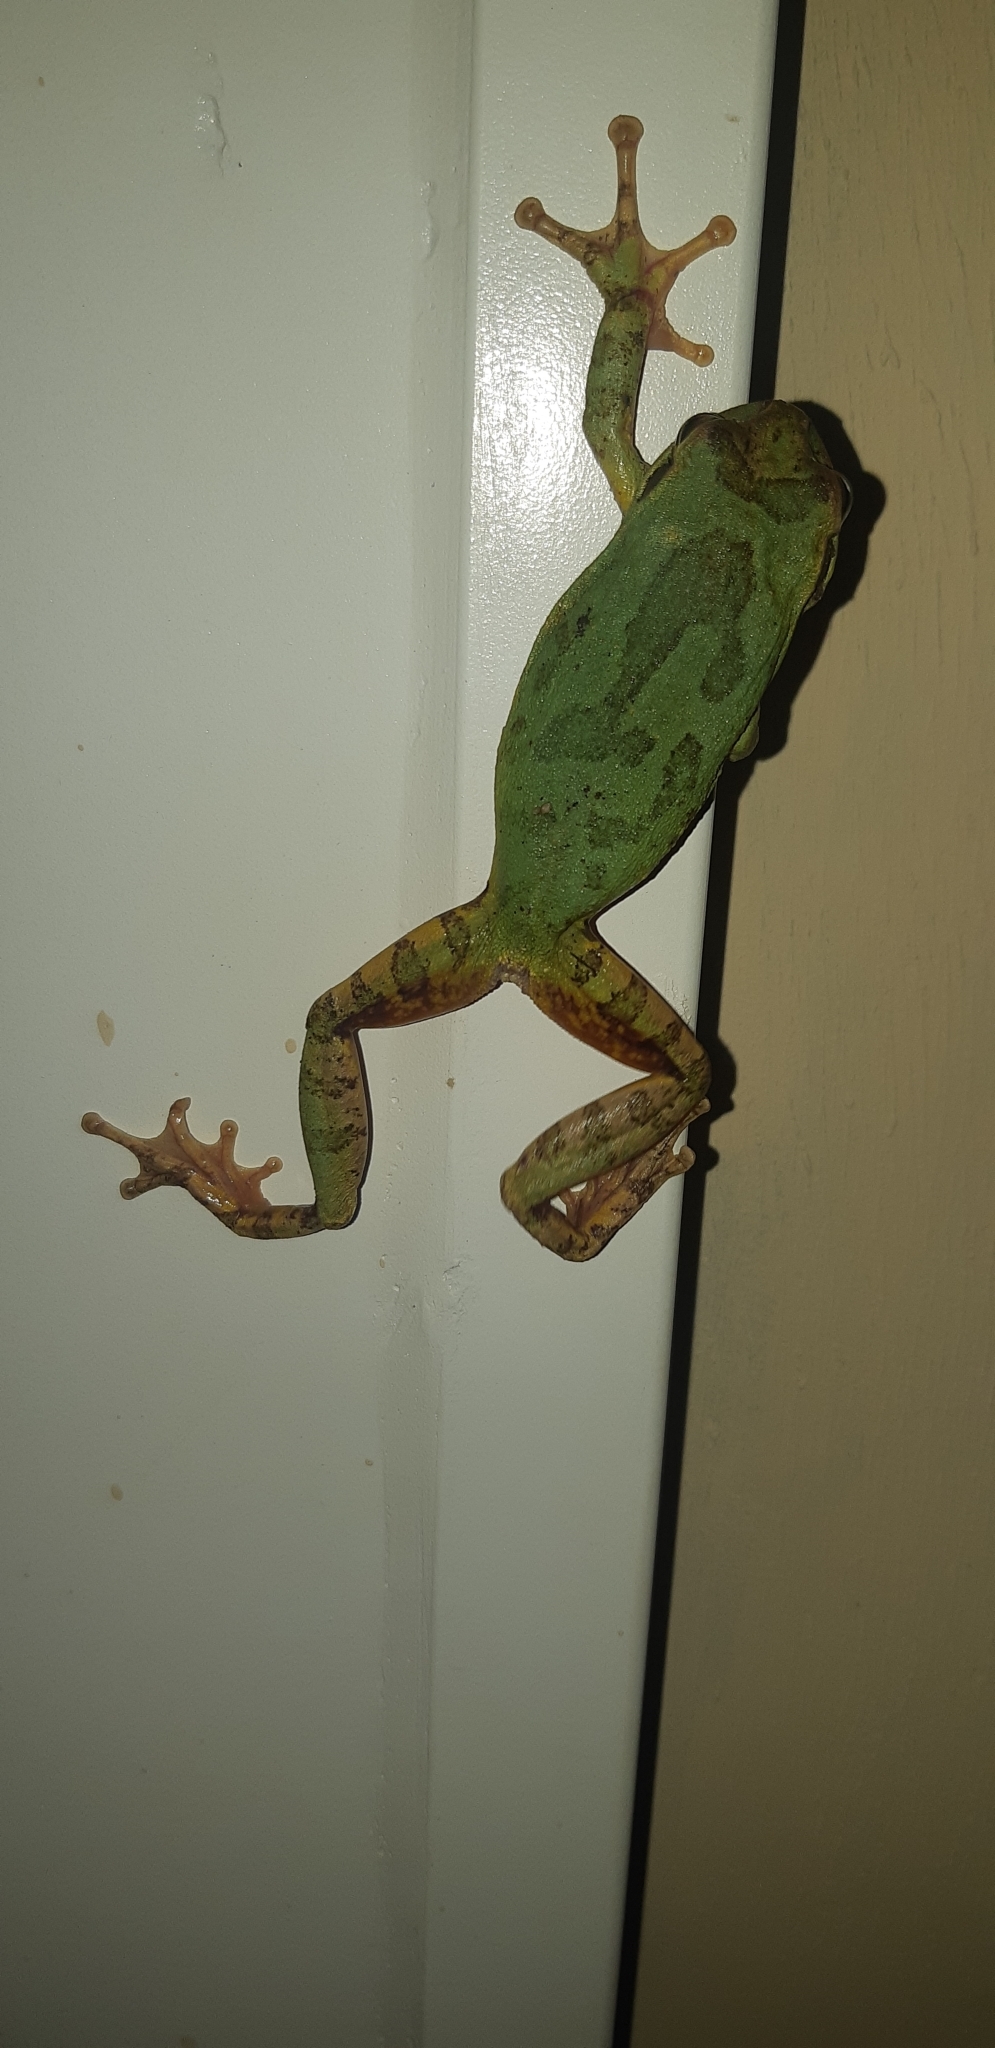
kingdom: Animalia
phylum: Chordata
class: Amphibia
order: Anura
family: Hylidae
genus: Smilisca
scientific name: Smilisca baudinii
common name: Mexican smilisca
